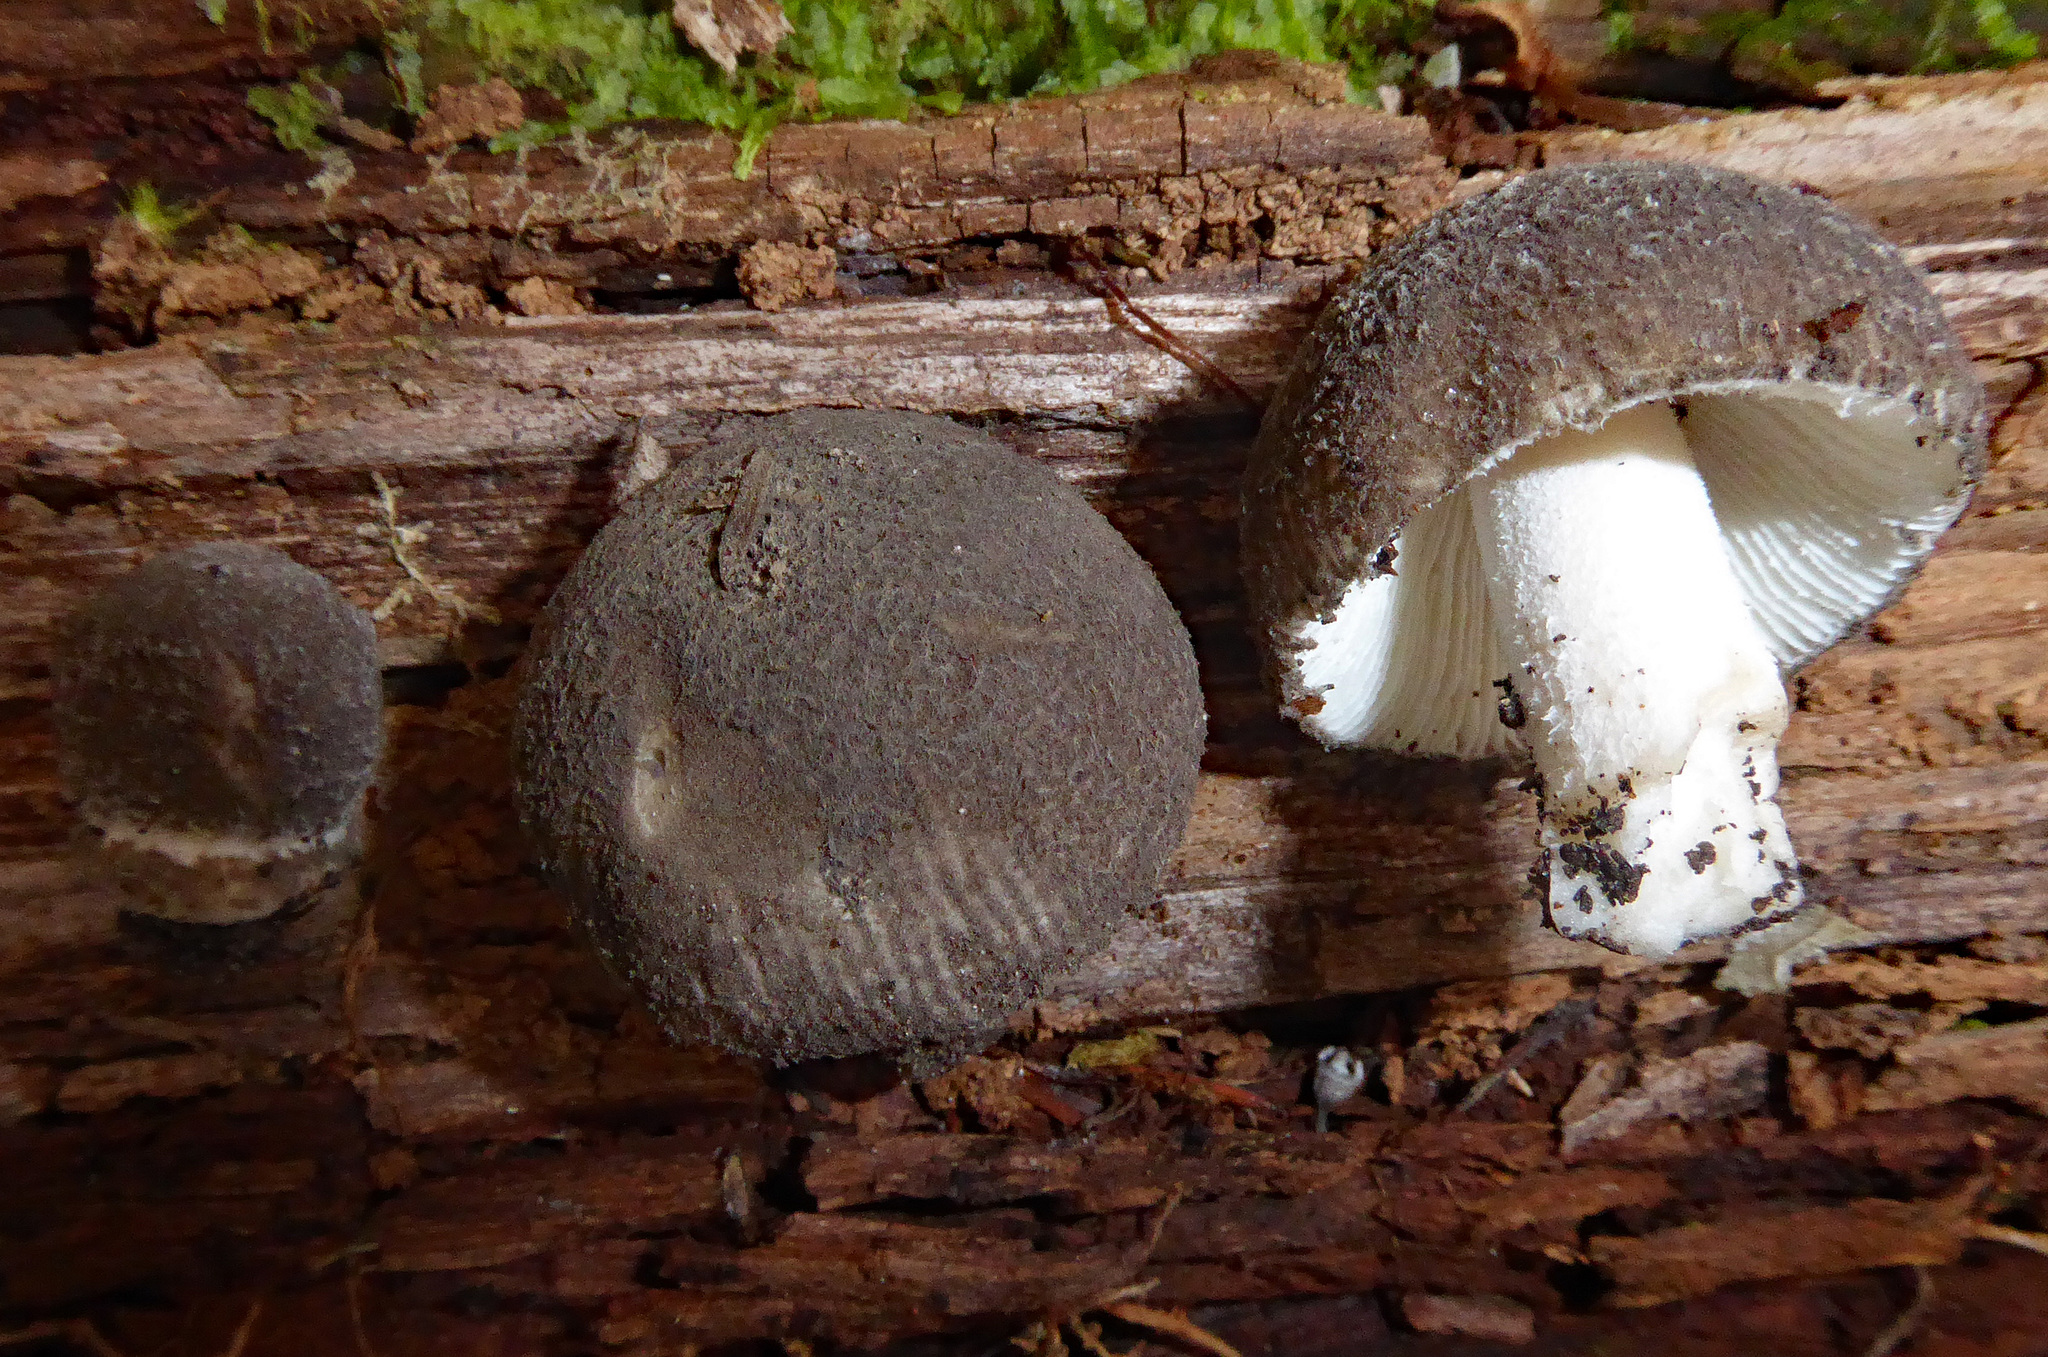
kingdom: Fungi
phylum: Basidiomycota
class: Agaricomycetes
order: Agaricales
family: Amanitaceae
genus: Amanita
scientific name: Amanita nehuta
